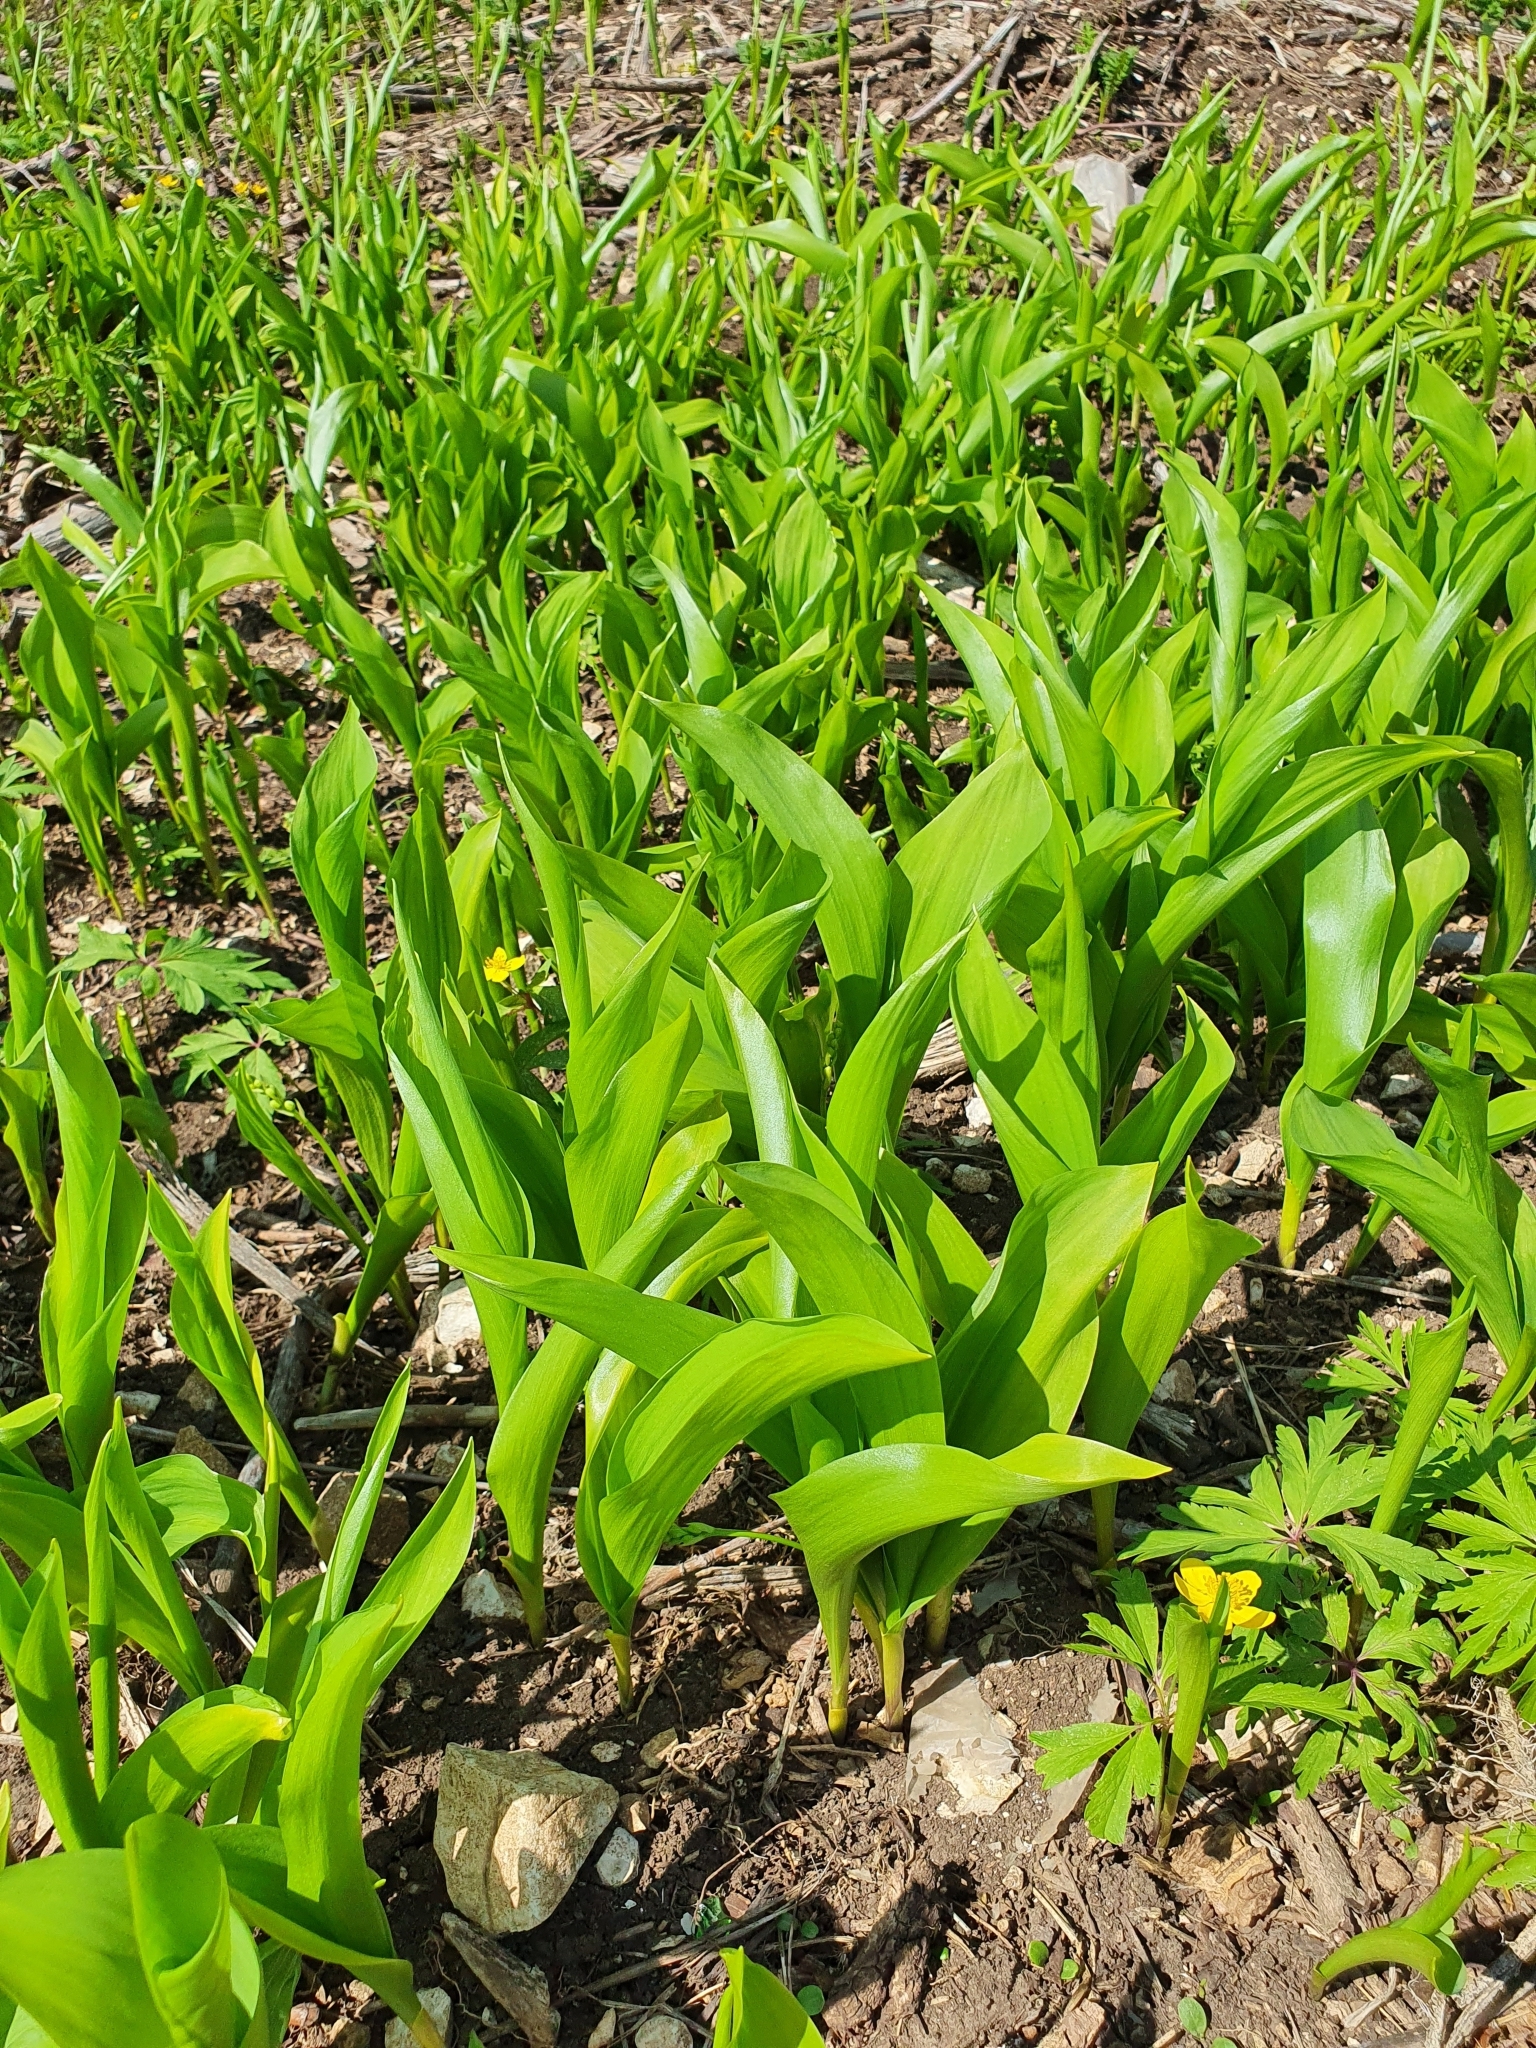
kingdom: Plantae
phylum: Tracheophyta
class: Liliopsida
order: Asparagales
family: Asparagaceae
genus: Convallaria
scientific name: Convallaria majalis
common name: Lily-of-the-valley
